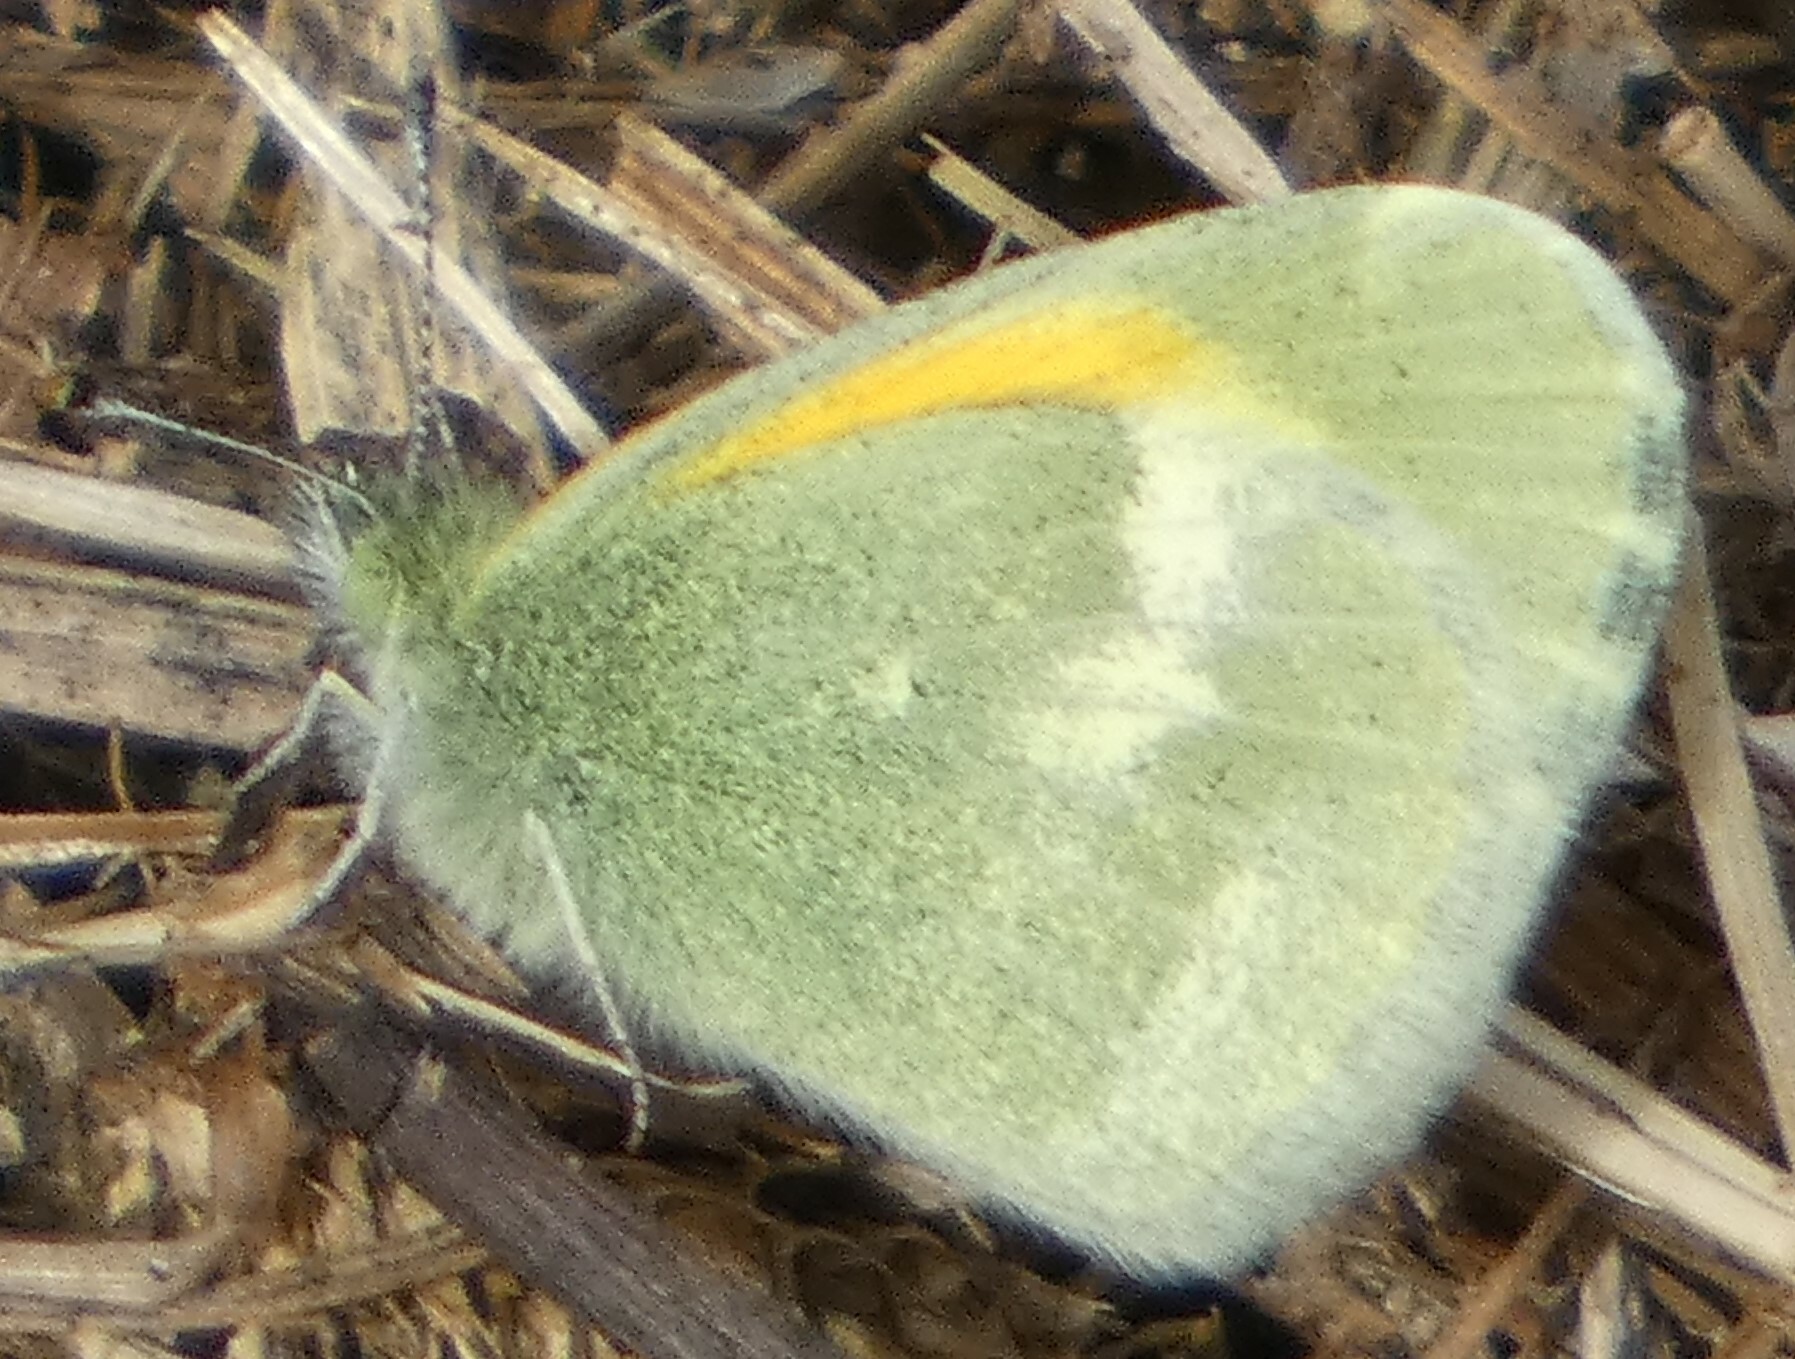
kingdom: Animalia
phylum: Arthropoda
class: Insecta
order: Lepidoptera
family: Pieridae
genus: Nathalis
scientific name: Nathalis iole
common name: Dainty sulphur
